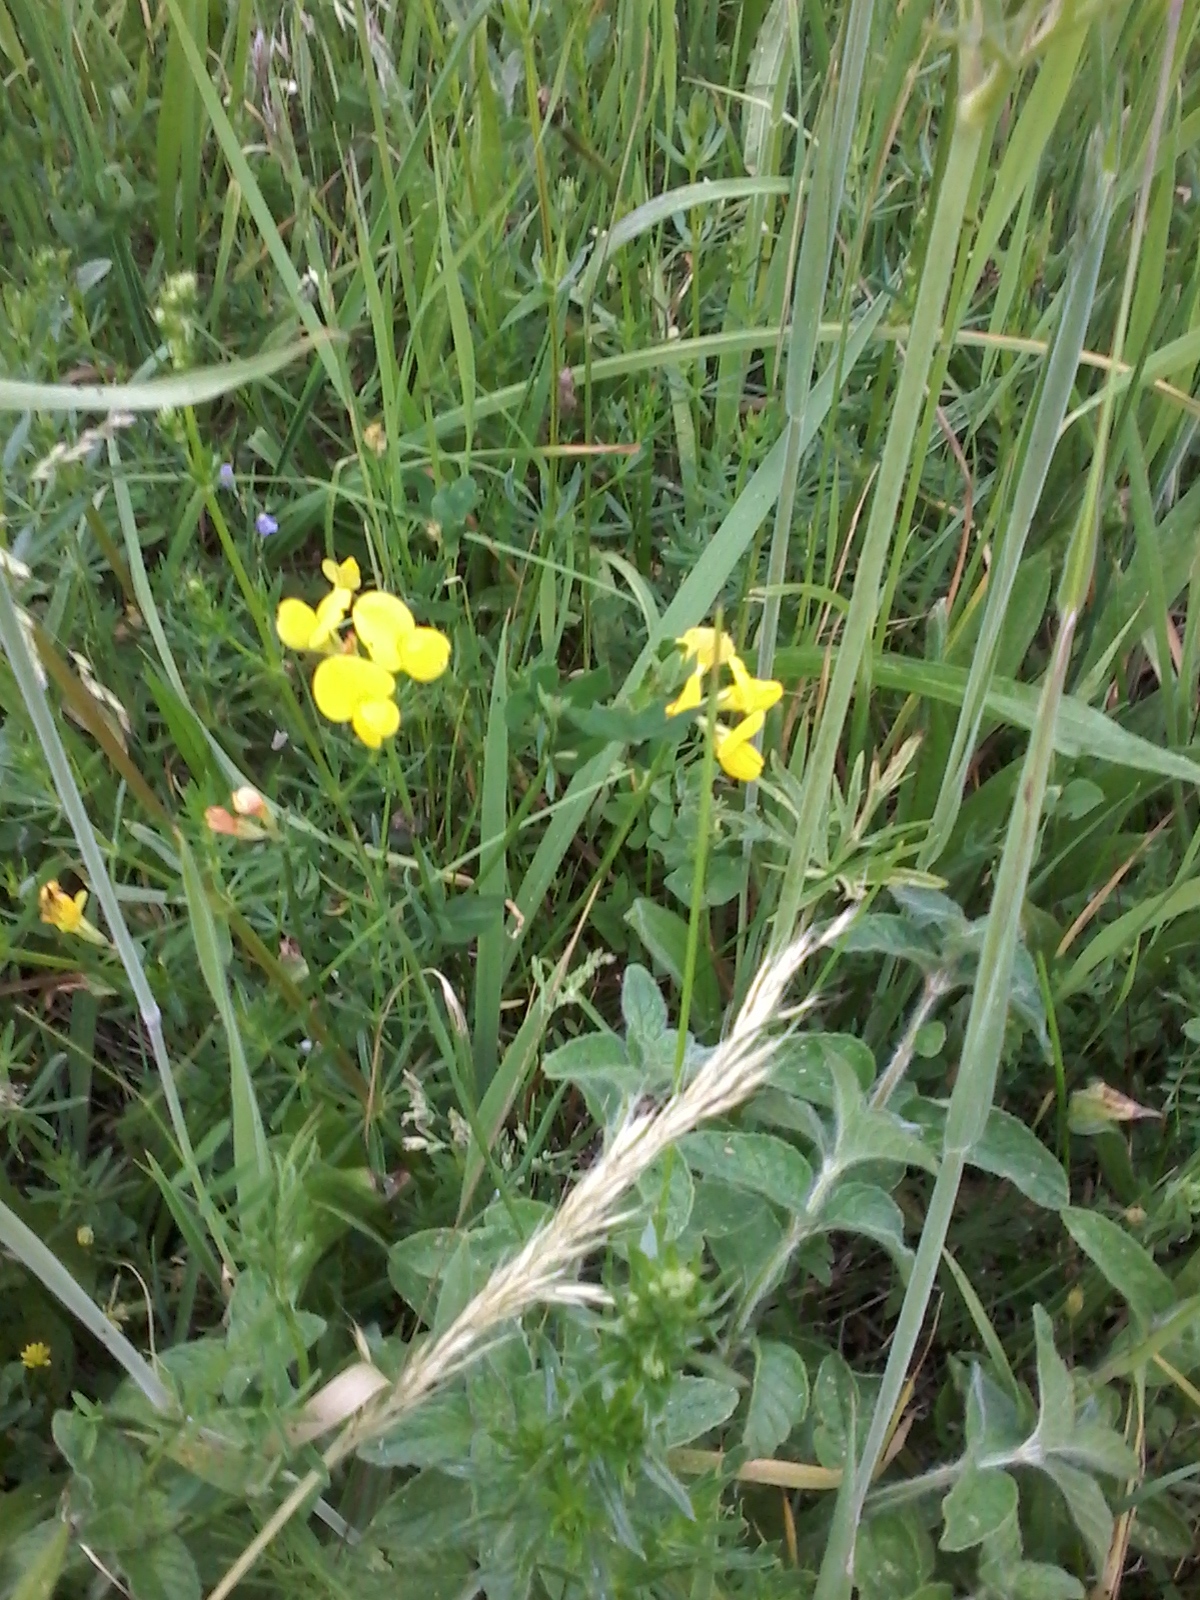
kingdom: Plantae
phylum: Tracheophyta
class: Magnoliopsida
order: Fabales
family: Fabaceae
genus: Lotus
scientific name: Lotus corniculatus
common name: Common bird's-foot-trefoil
